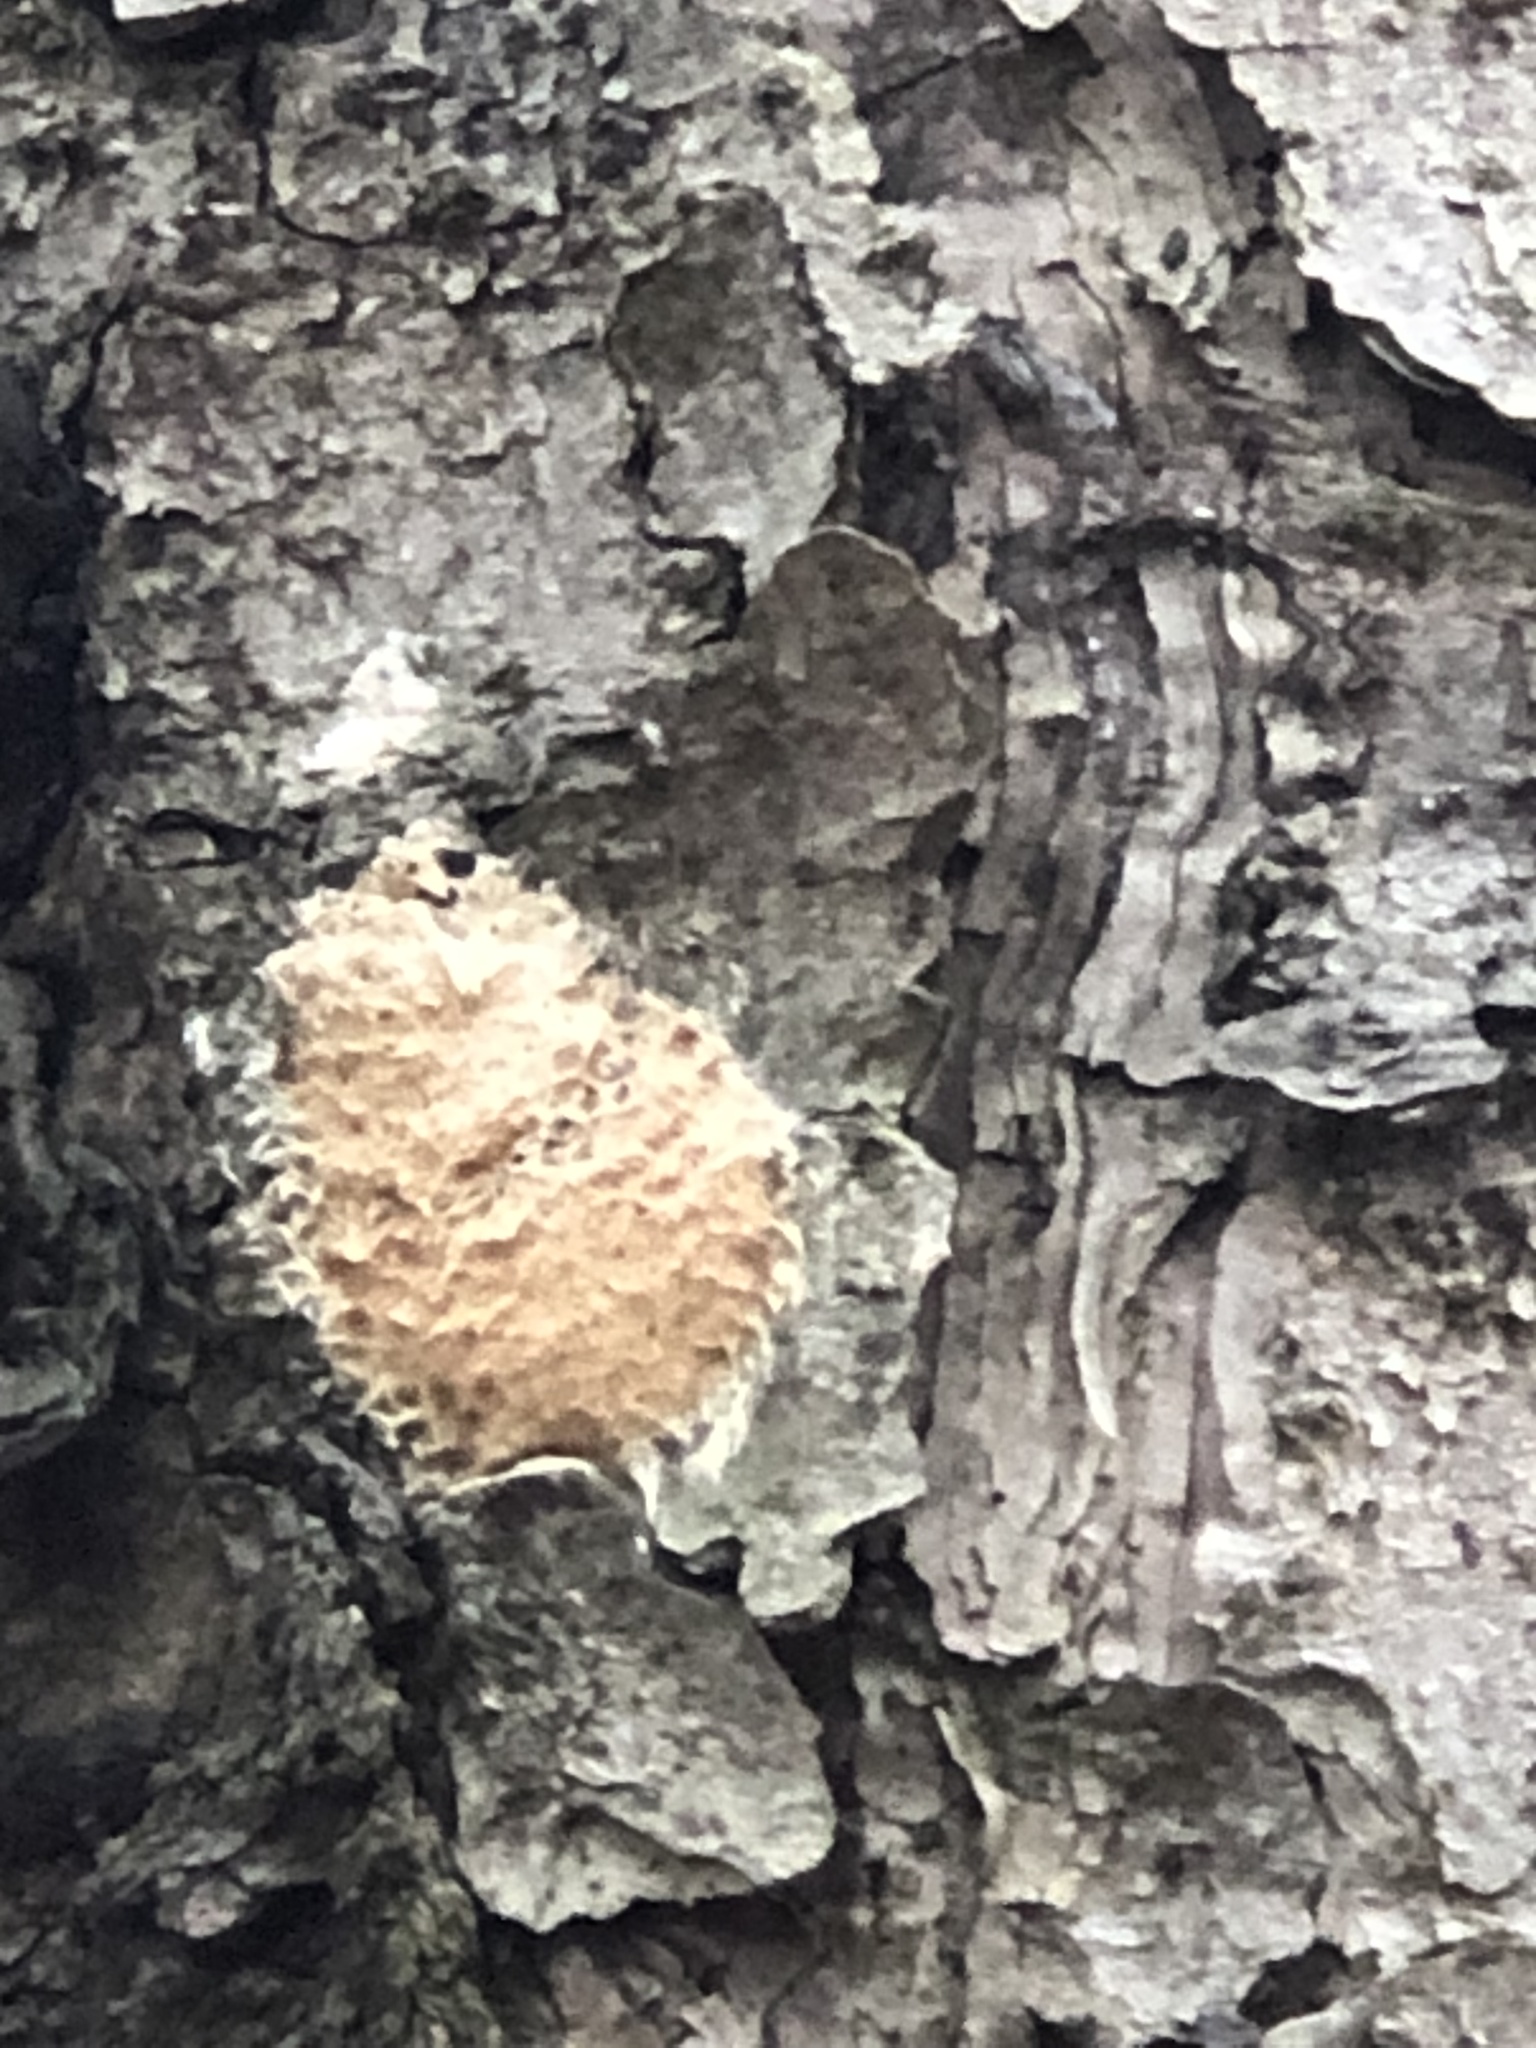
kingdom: Animalia
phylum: Arthropoda
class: Insecta
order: Lepidoptera
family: Erebidae
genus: Lymantria
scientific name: Lymantria dispar
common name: Gypsy moth
